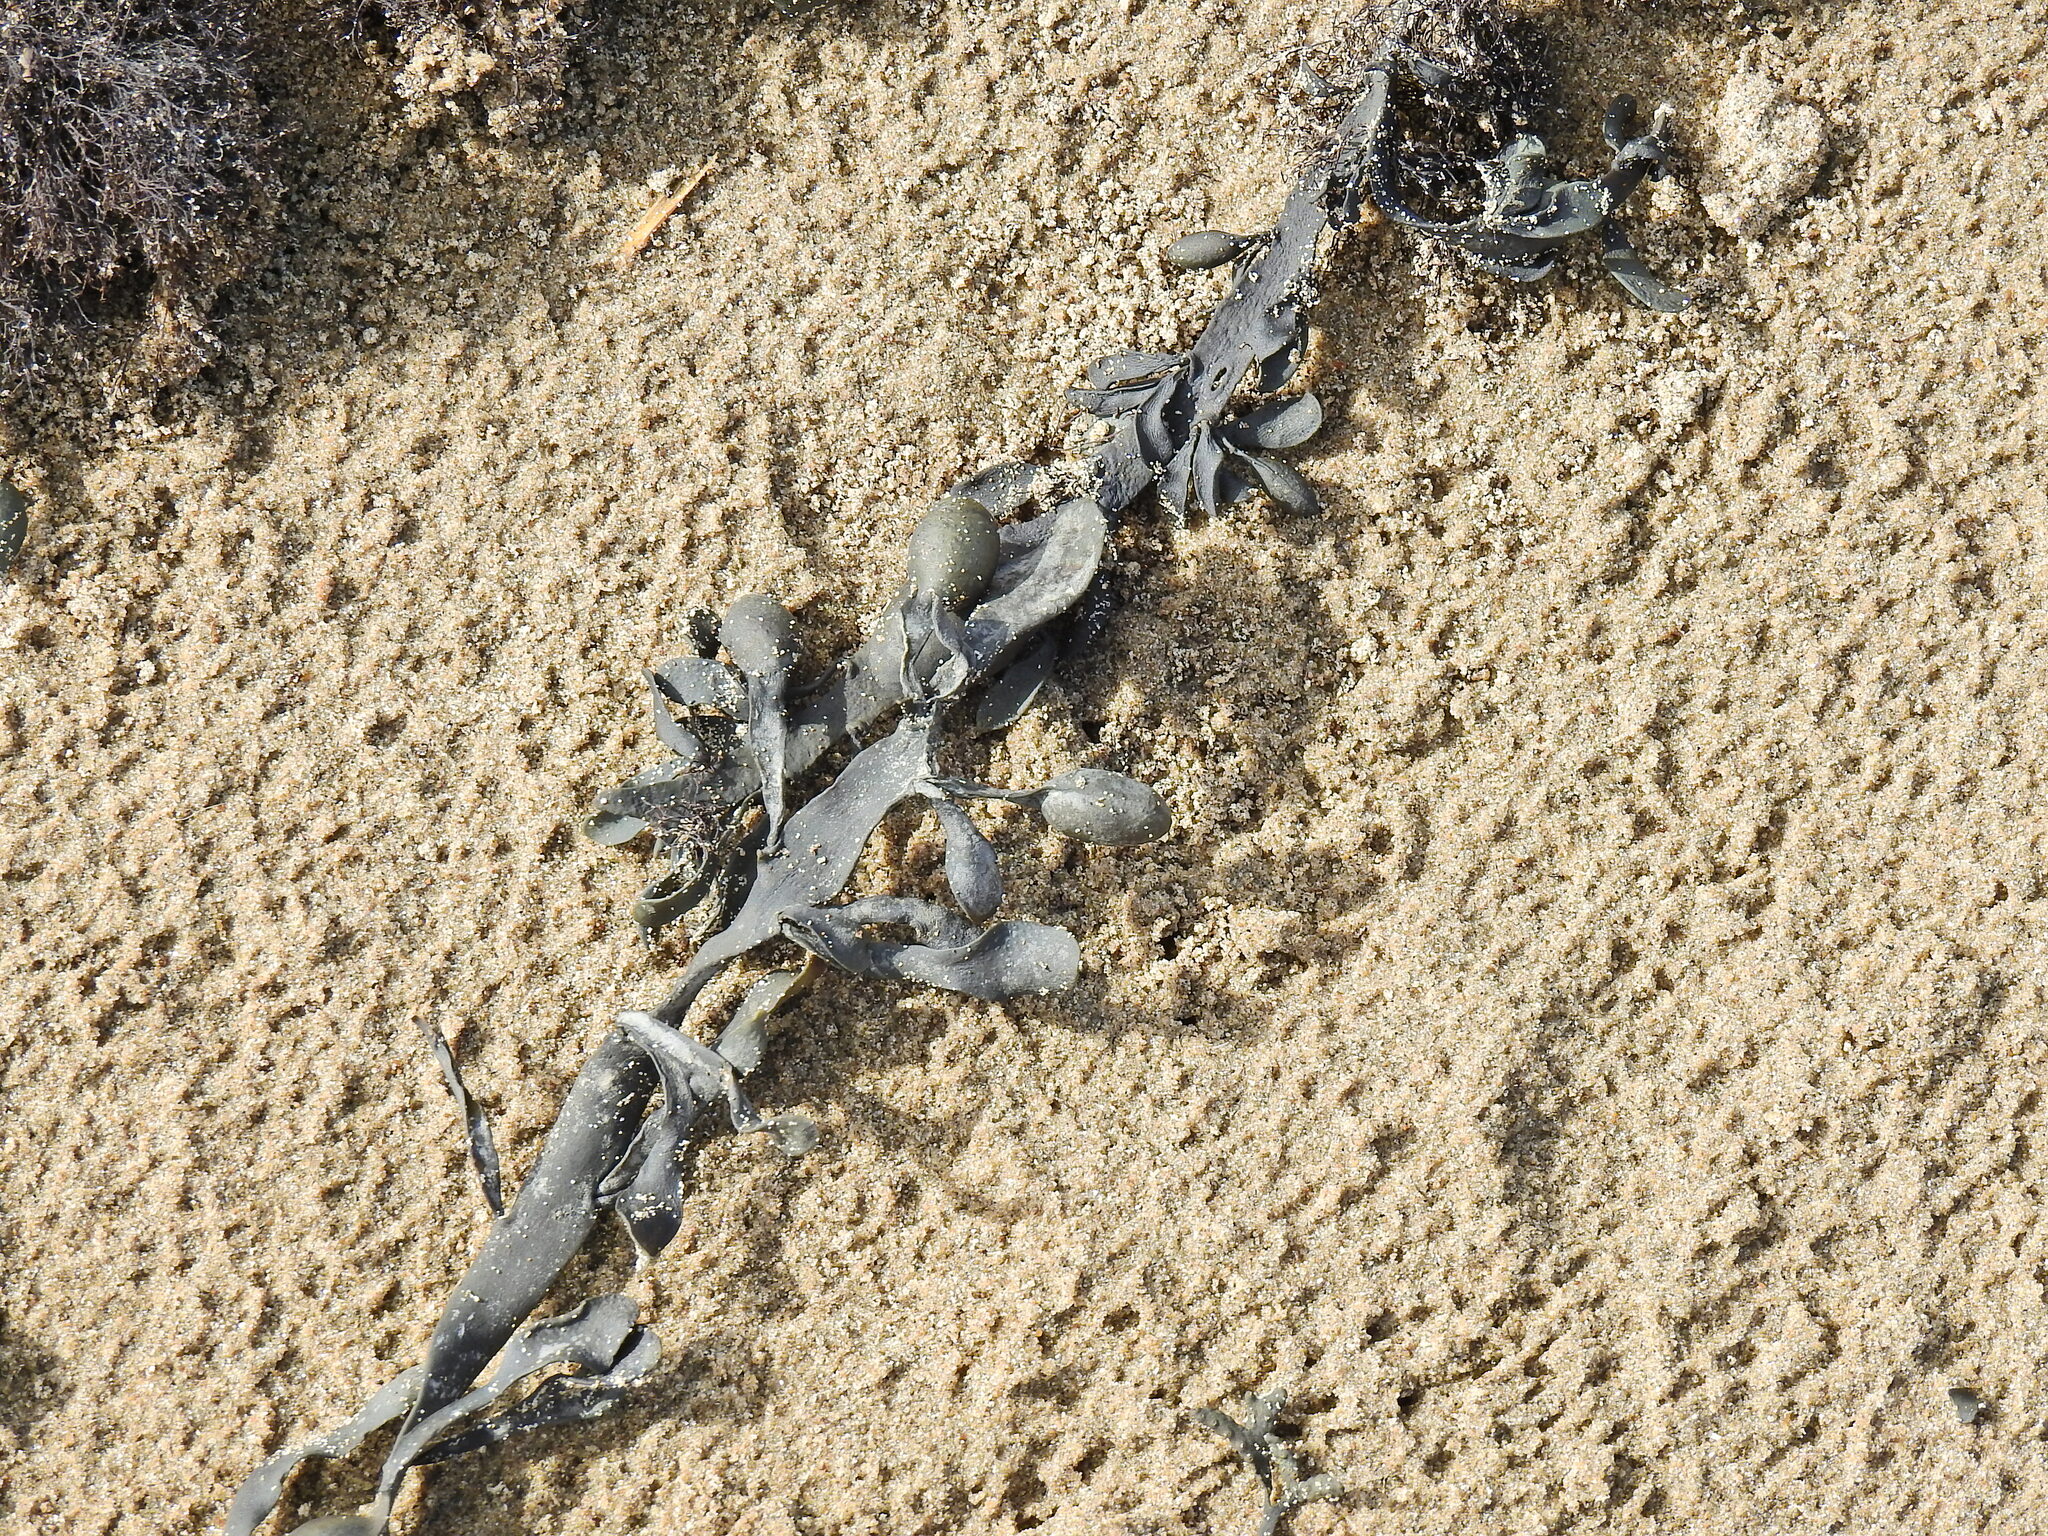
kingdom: Chromista
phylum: Ochrophyta
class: Phaeophyceae
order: Fucales
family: Fucaceae
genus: Ascophyllum
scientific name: Ascophyllum nodosum
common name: Knotted wrack
